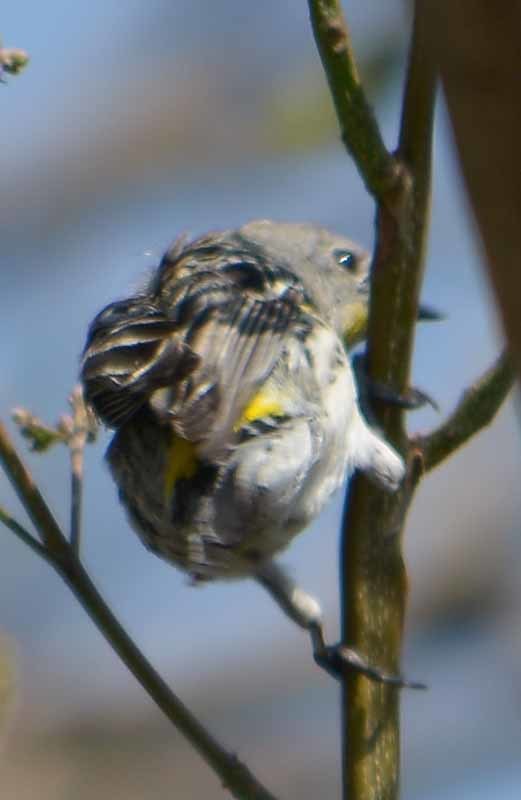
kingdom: Animalia
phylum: Chordata
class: Aves
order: Passeriformes
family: Parulidae
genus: Setophaga
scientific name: Setophaga coronata
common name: Myrtle warbler
